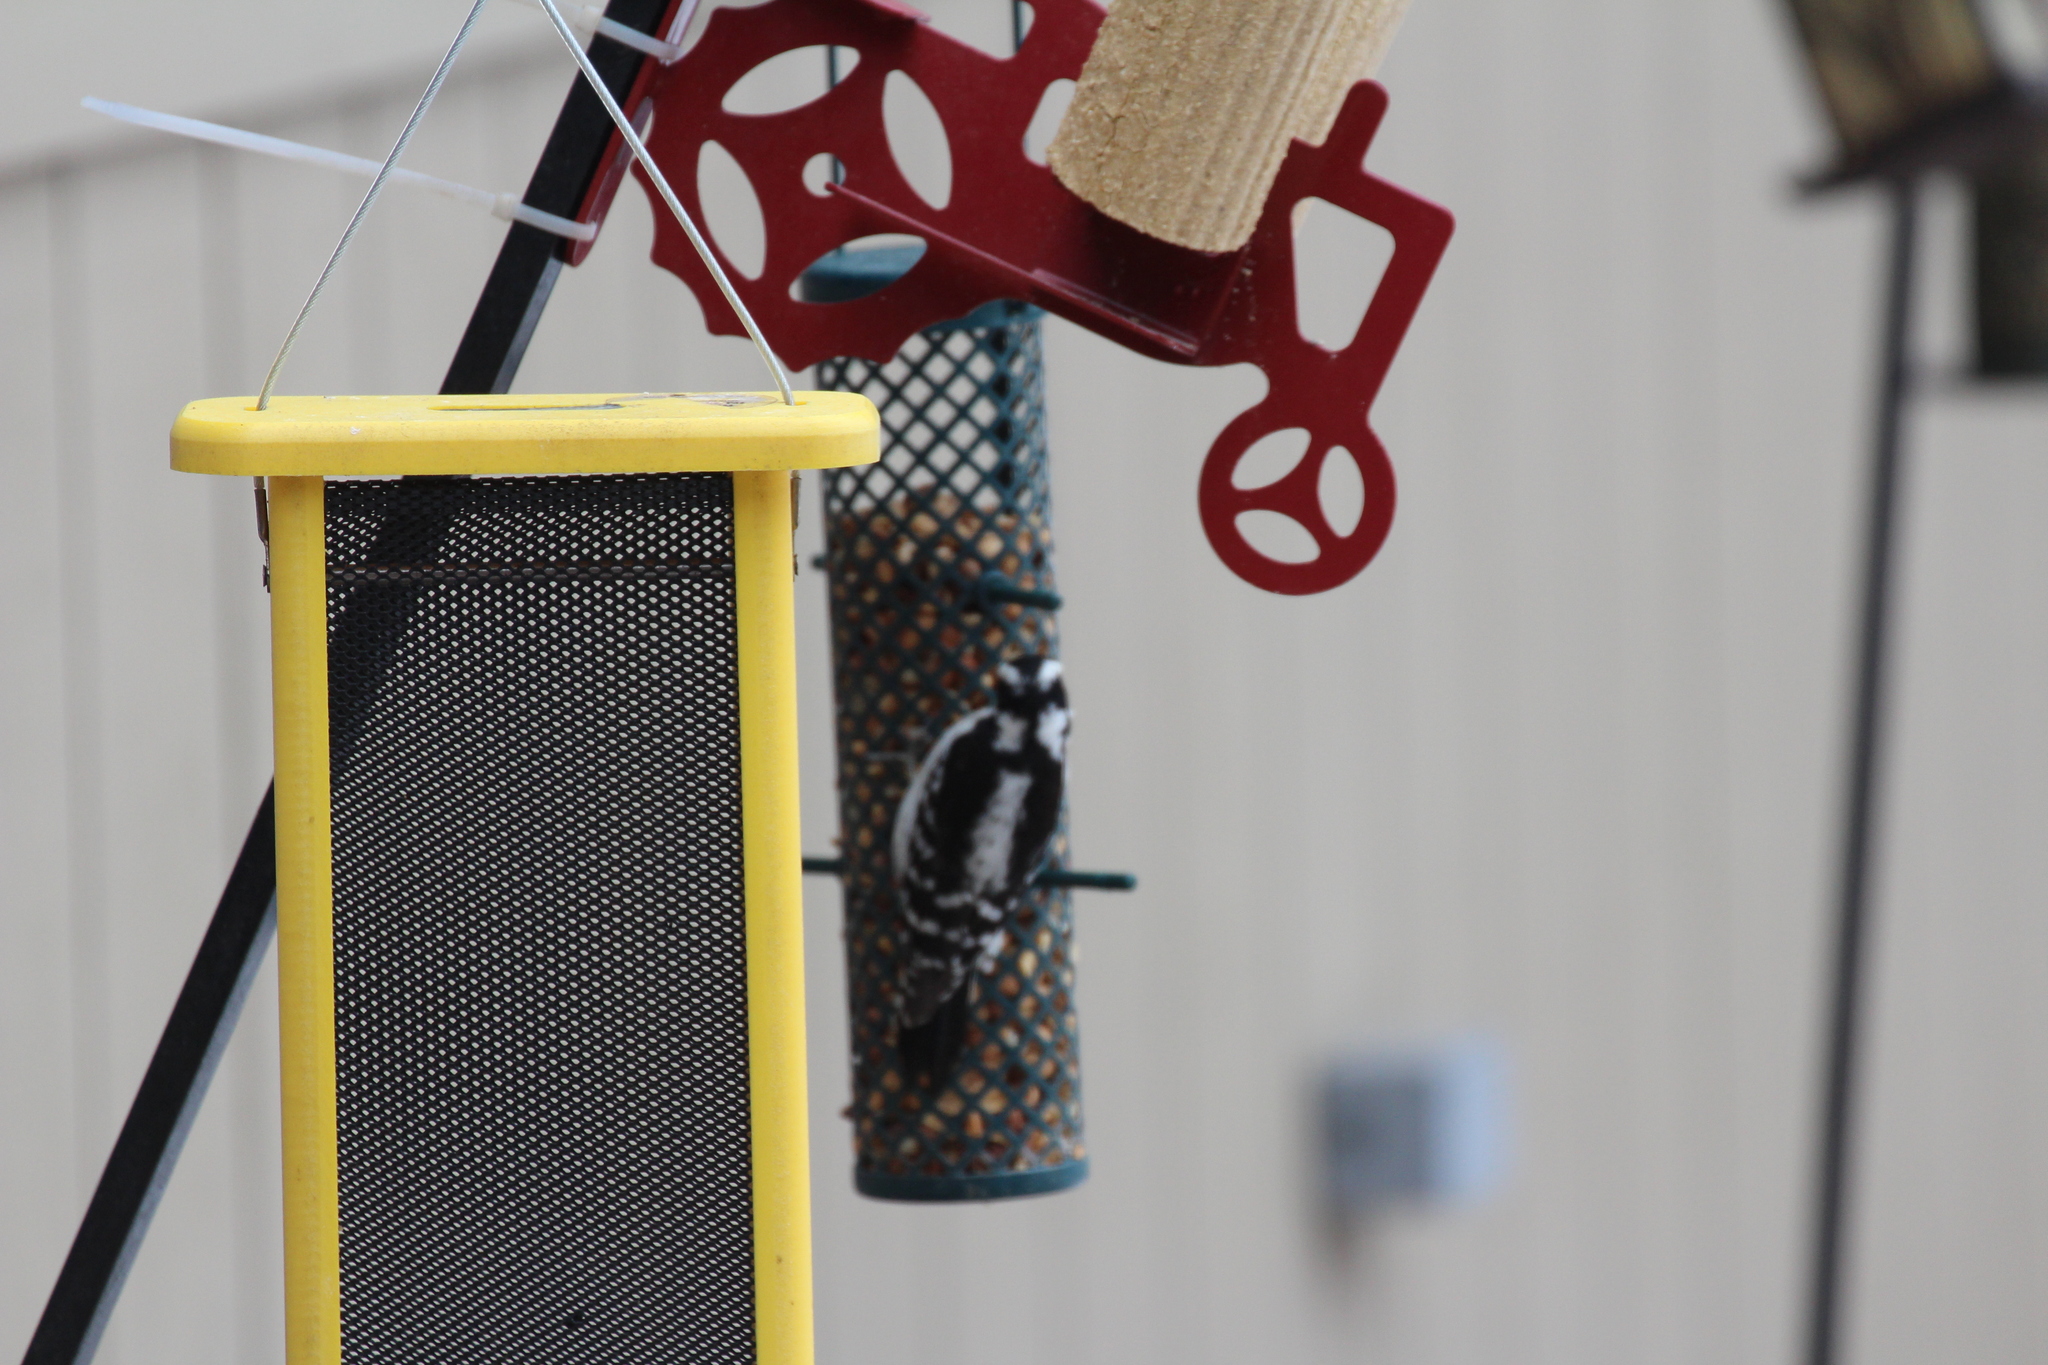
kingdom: Animalia
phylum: Chordata
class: Aves
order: Piciformes
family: Picidae
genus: Dryobates
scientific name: Dryobates pubescens
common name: Downy woodpecker
